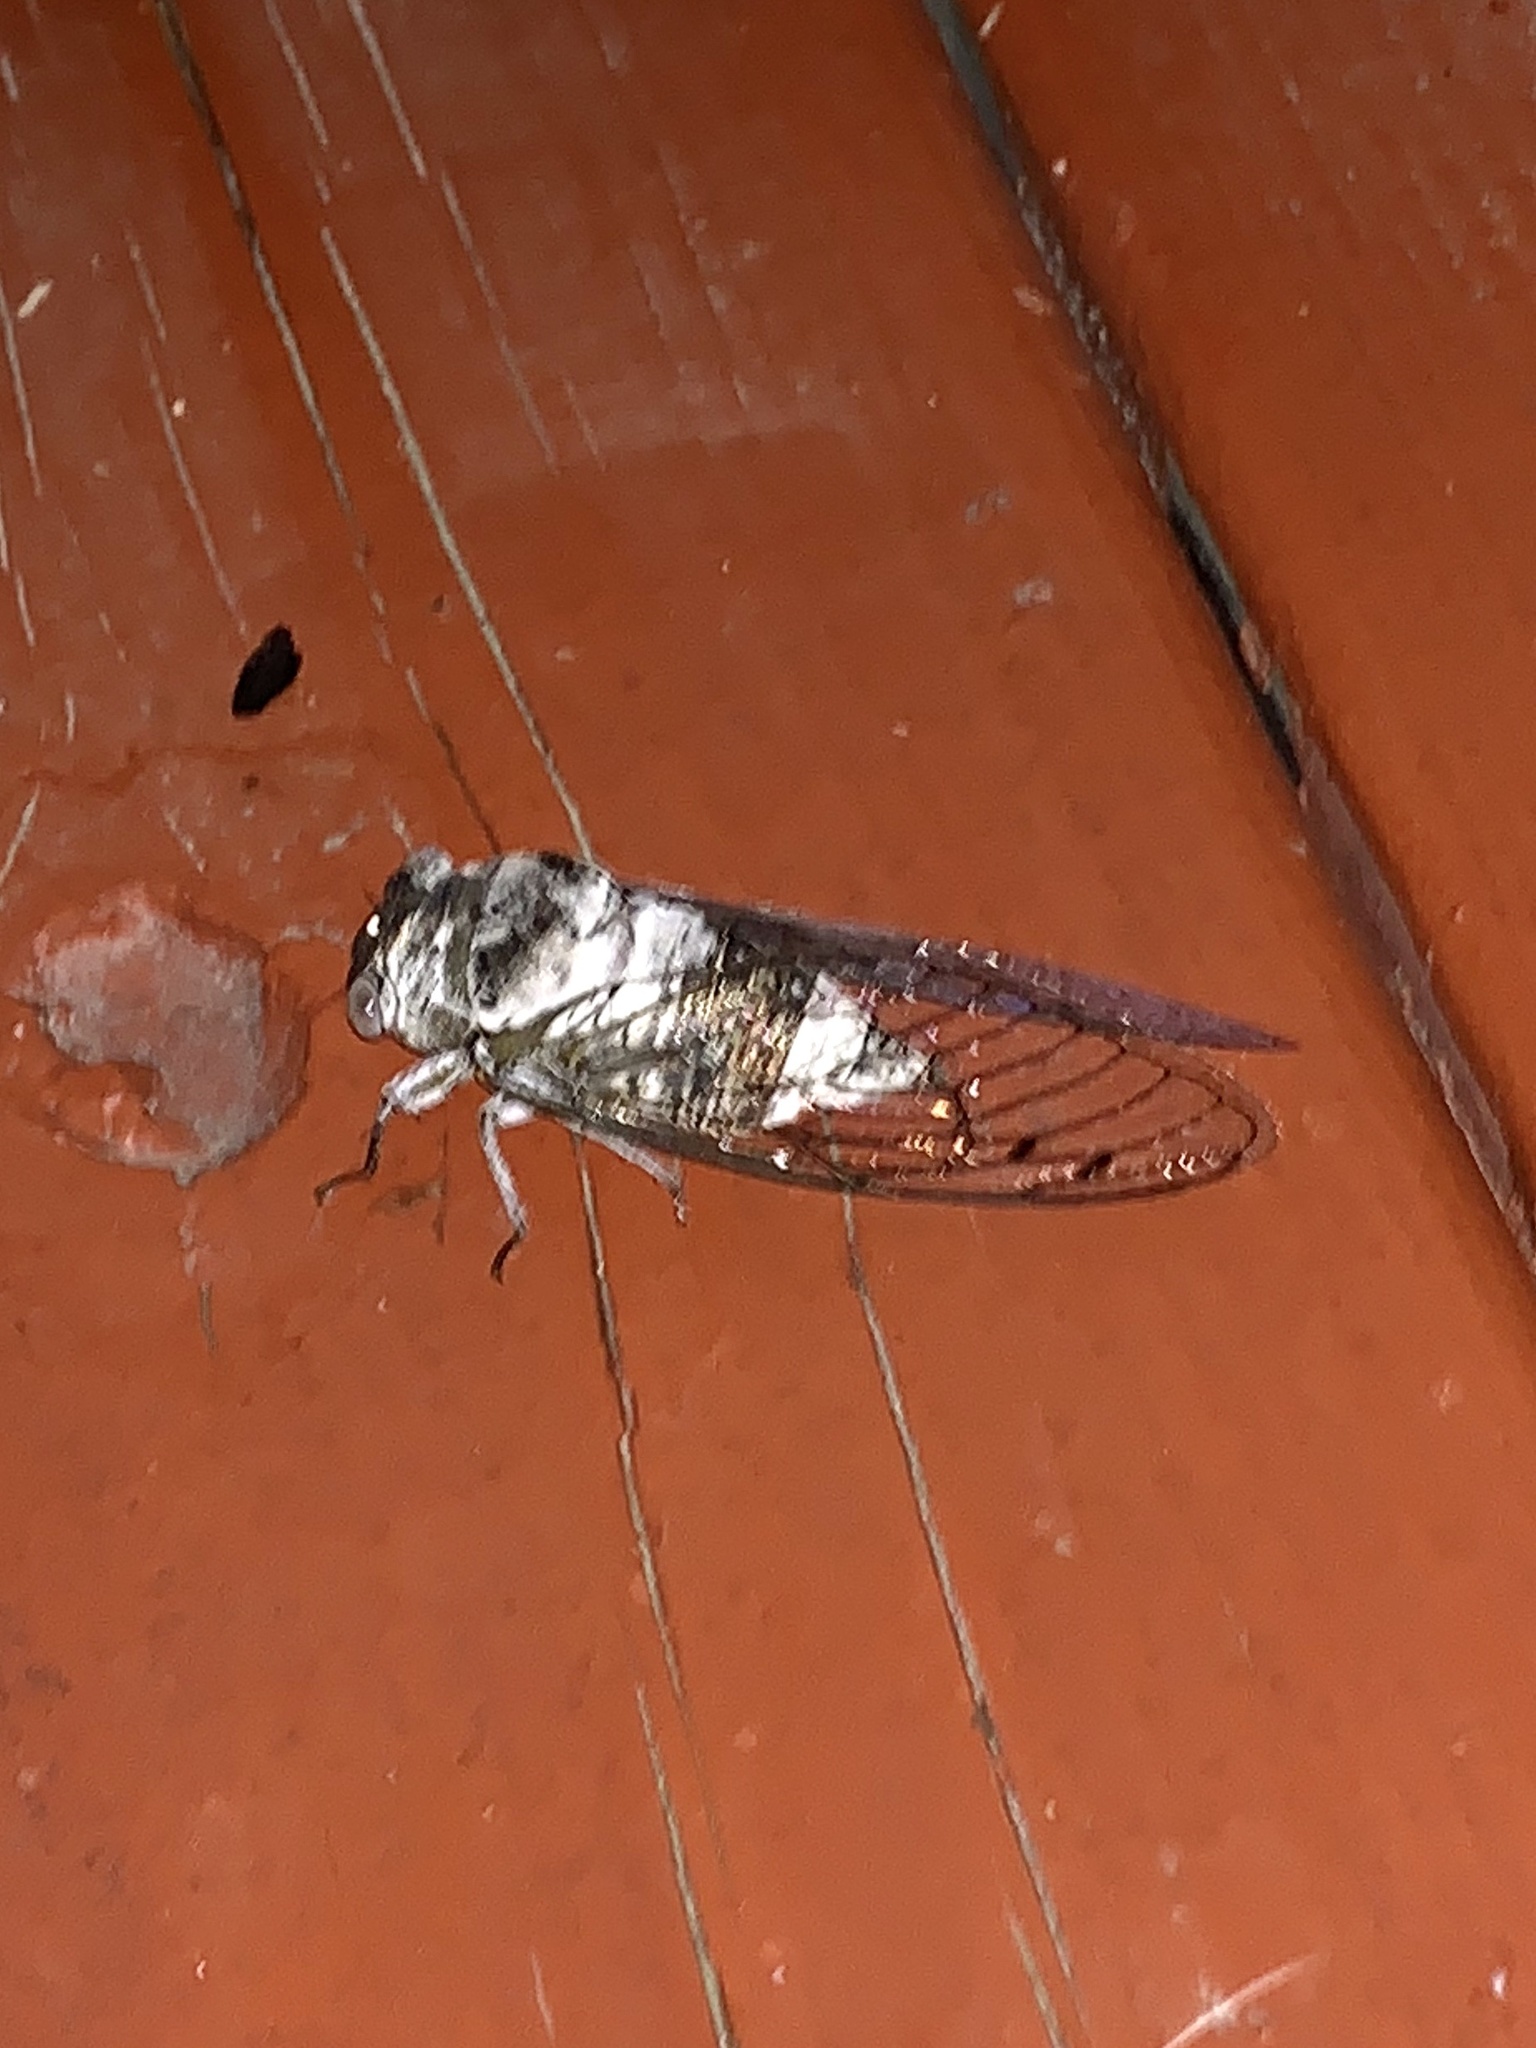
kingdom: Animalia
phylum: Arthropoda
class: Insecta
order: Hemiptera
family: Cicadidae
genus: Diceroprocta
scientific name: Diceroprocta grossa
